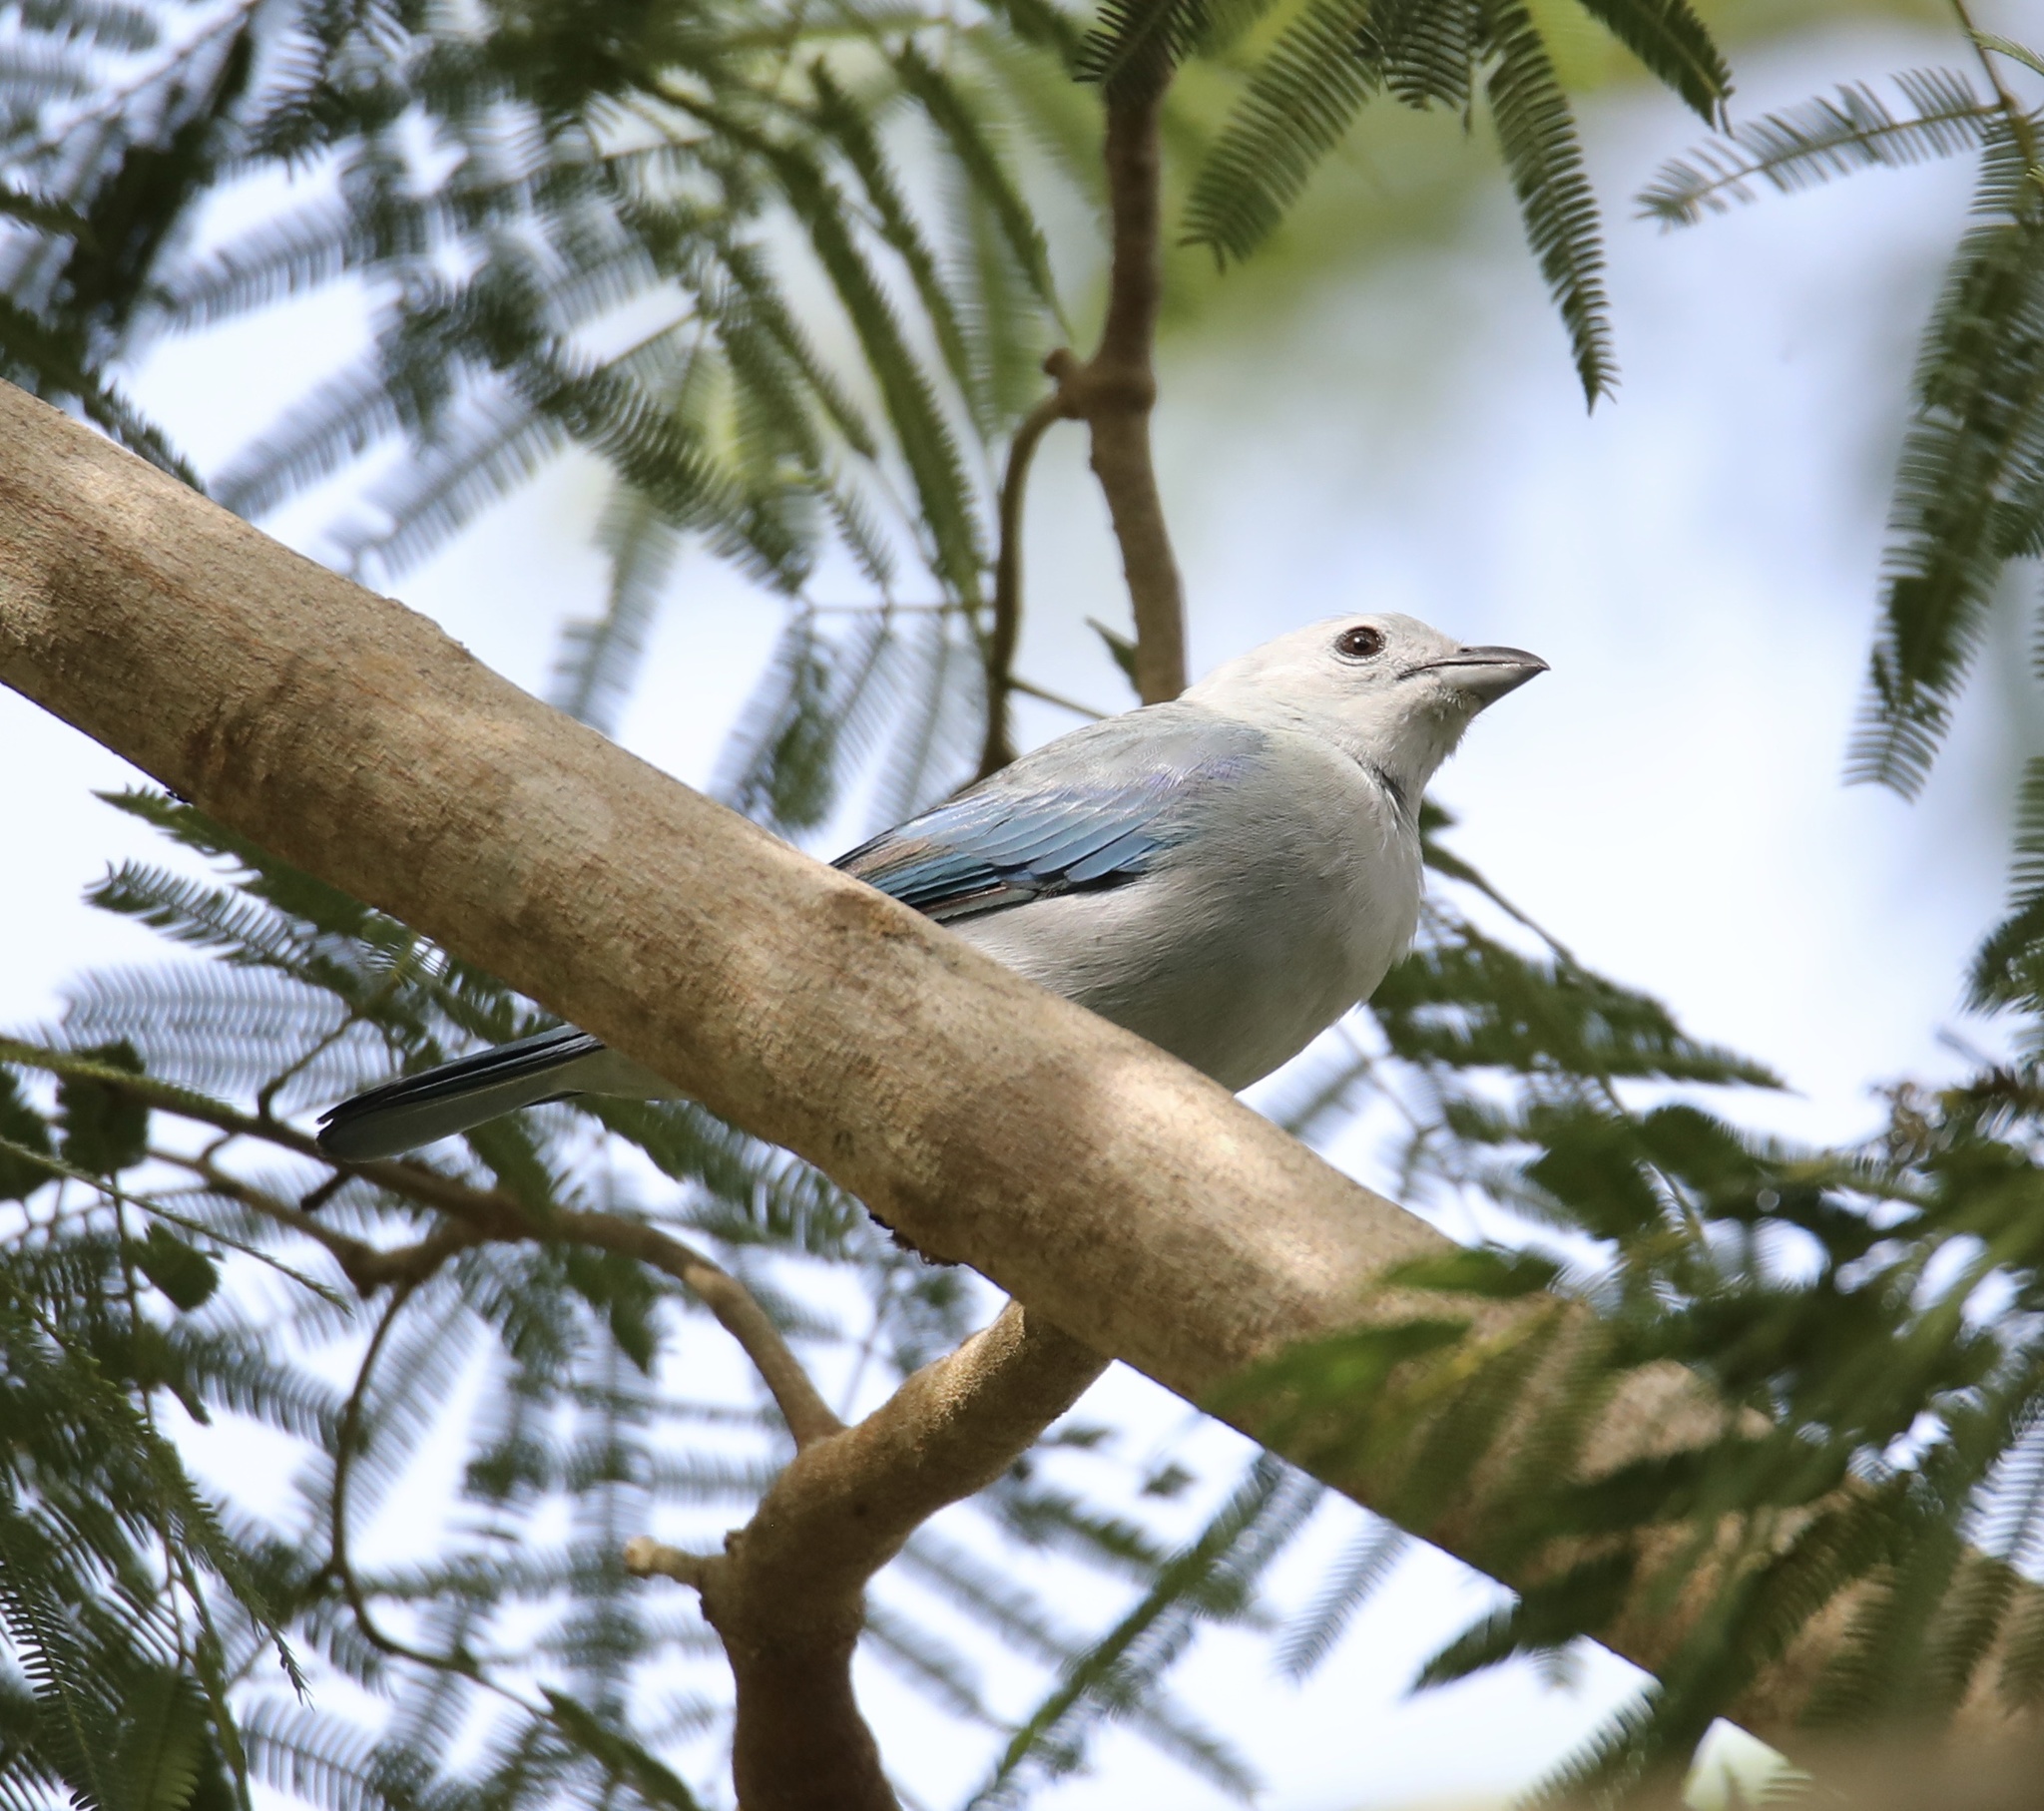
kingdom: Animalia
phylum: Chordata
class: Aves
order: Passeriformes
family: Thraupidae
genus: Thraupis
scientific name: Thraupis episcopus
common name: Blue-grey tanager
